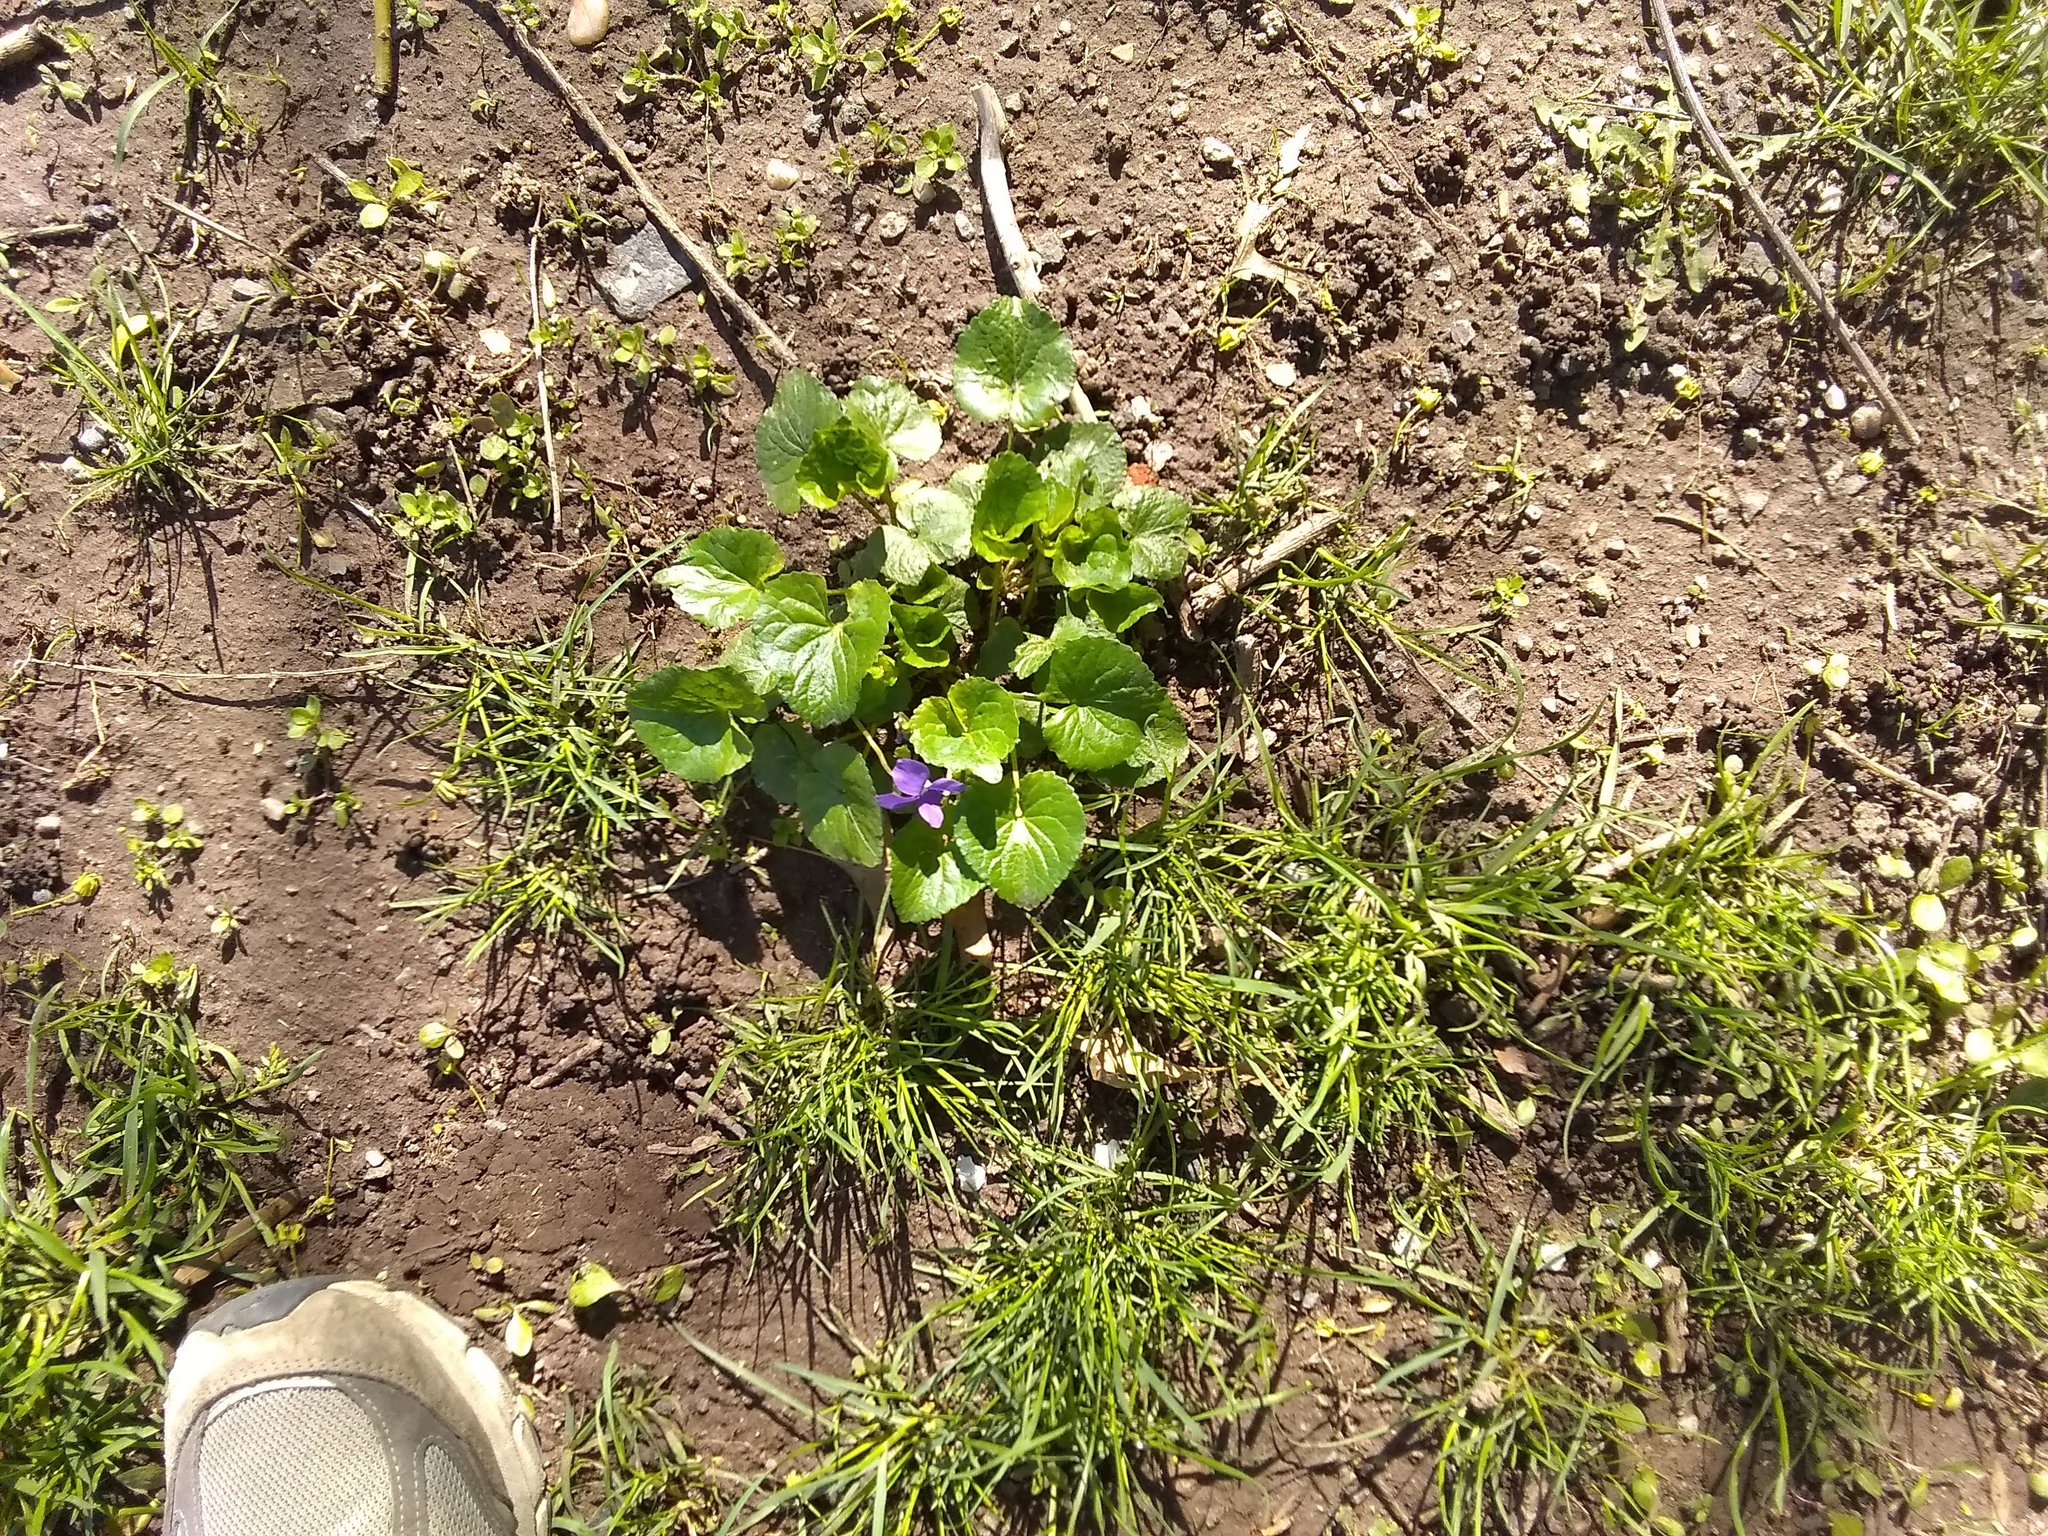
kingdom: Plantae
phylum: Tracheophyta
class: Magnoliopsida
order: Malpighiales
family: Violaceae
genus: Viola
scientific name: Viola sororia
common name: Dooryard violet
